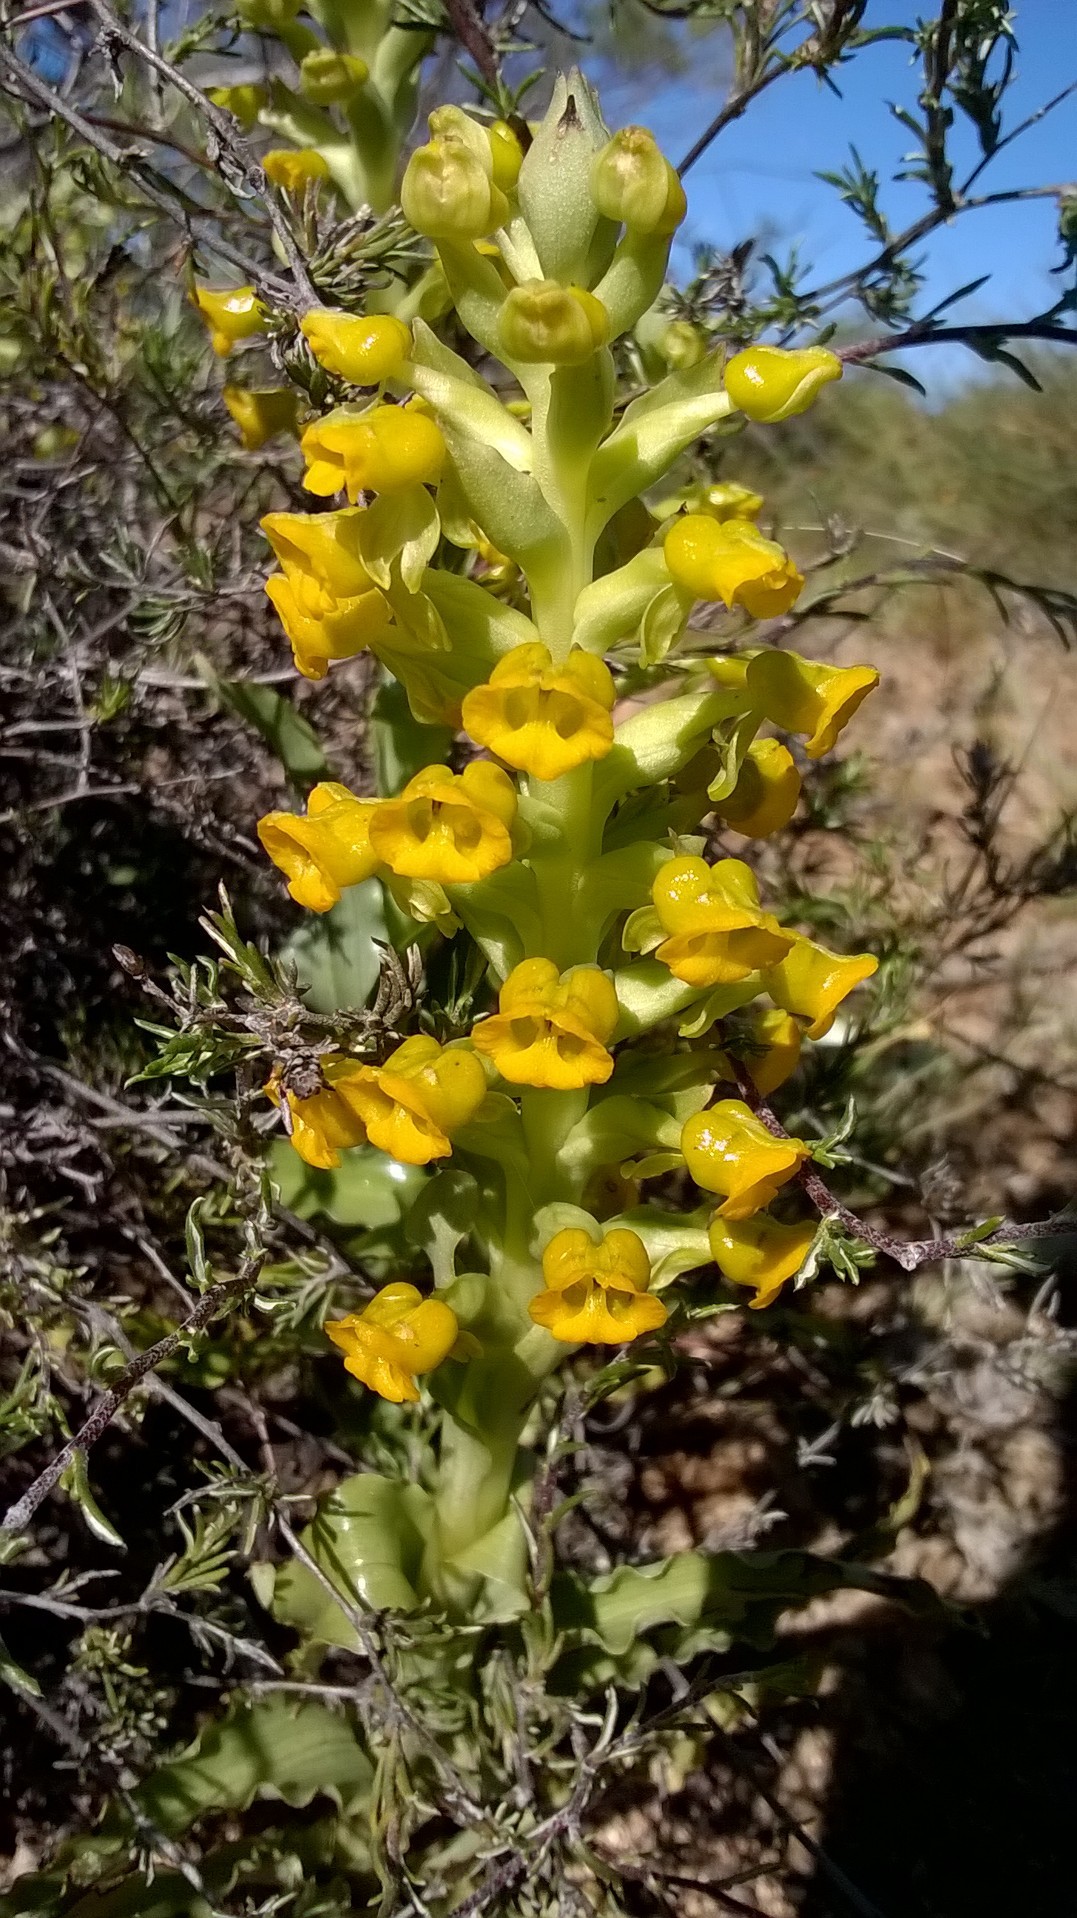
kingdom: Plantae
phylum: Tracheophyta
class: Liliopsida
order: Asparagales
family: Orchidaceae
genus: Corycium
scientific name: Corycium crispum
